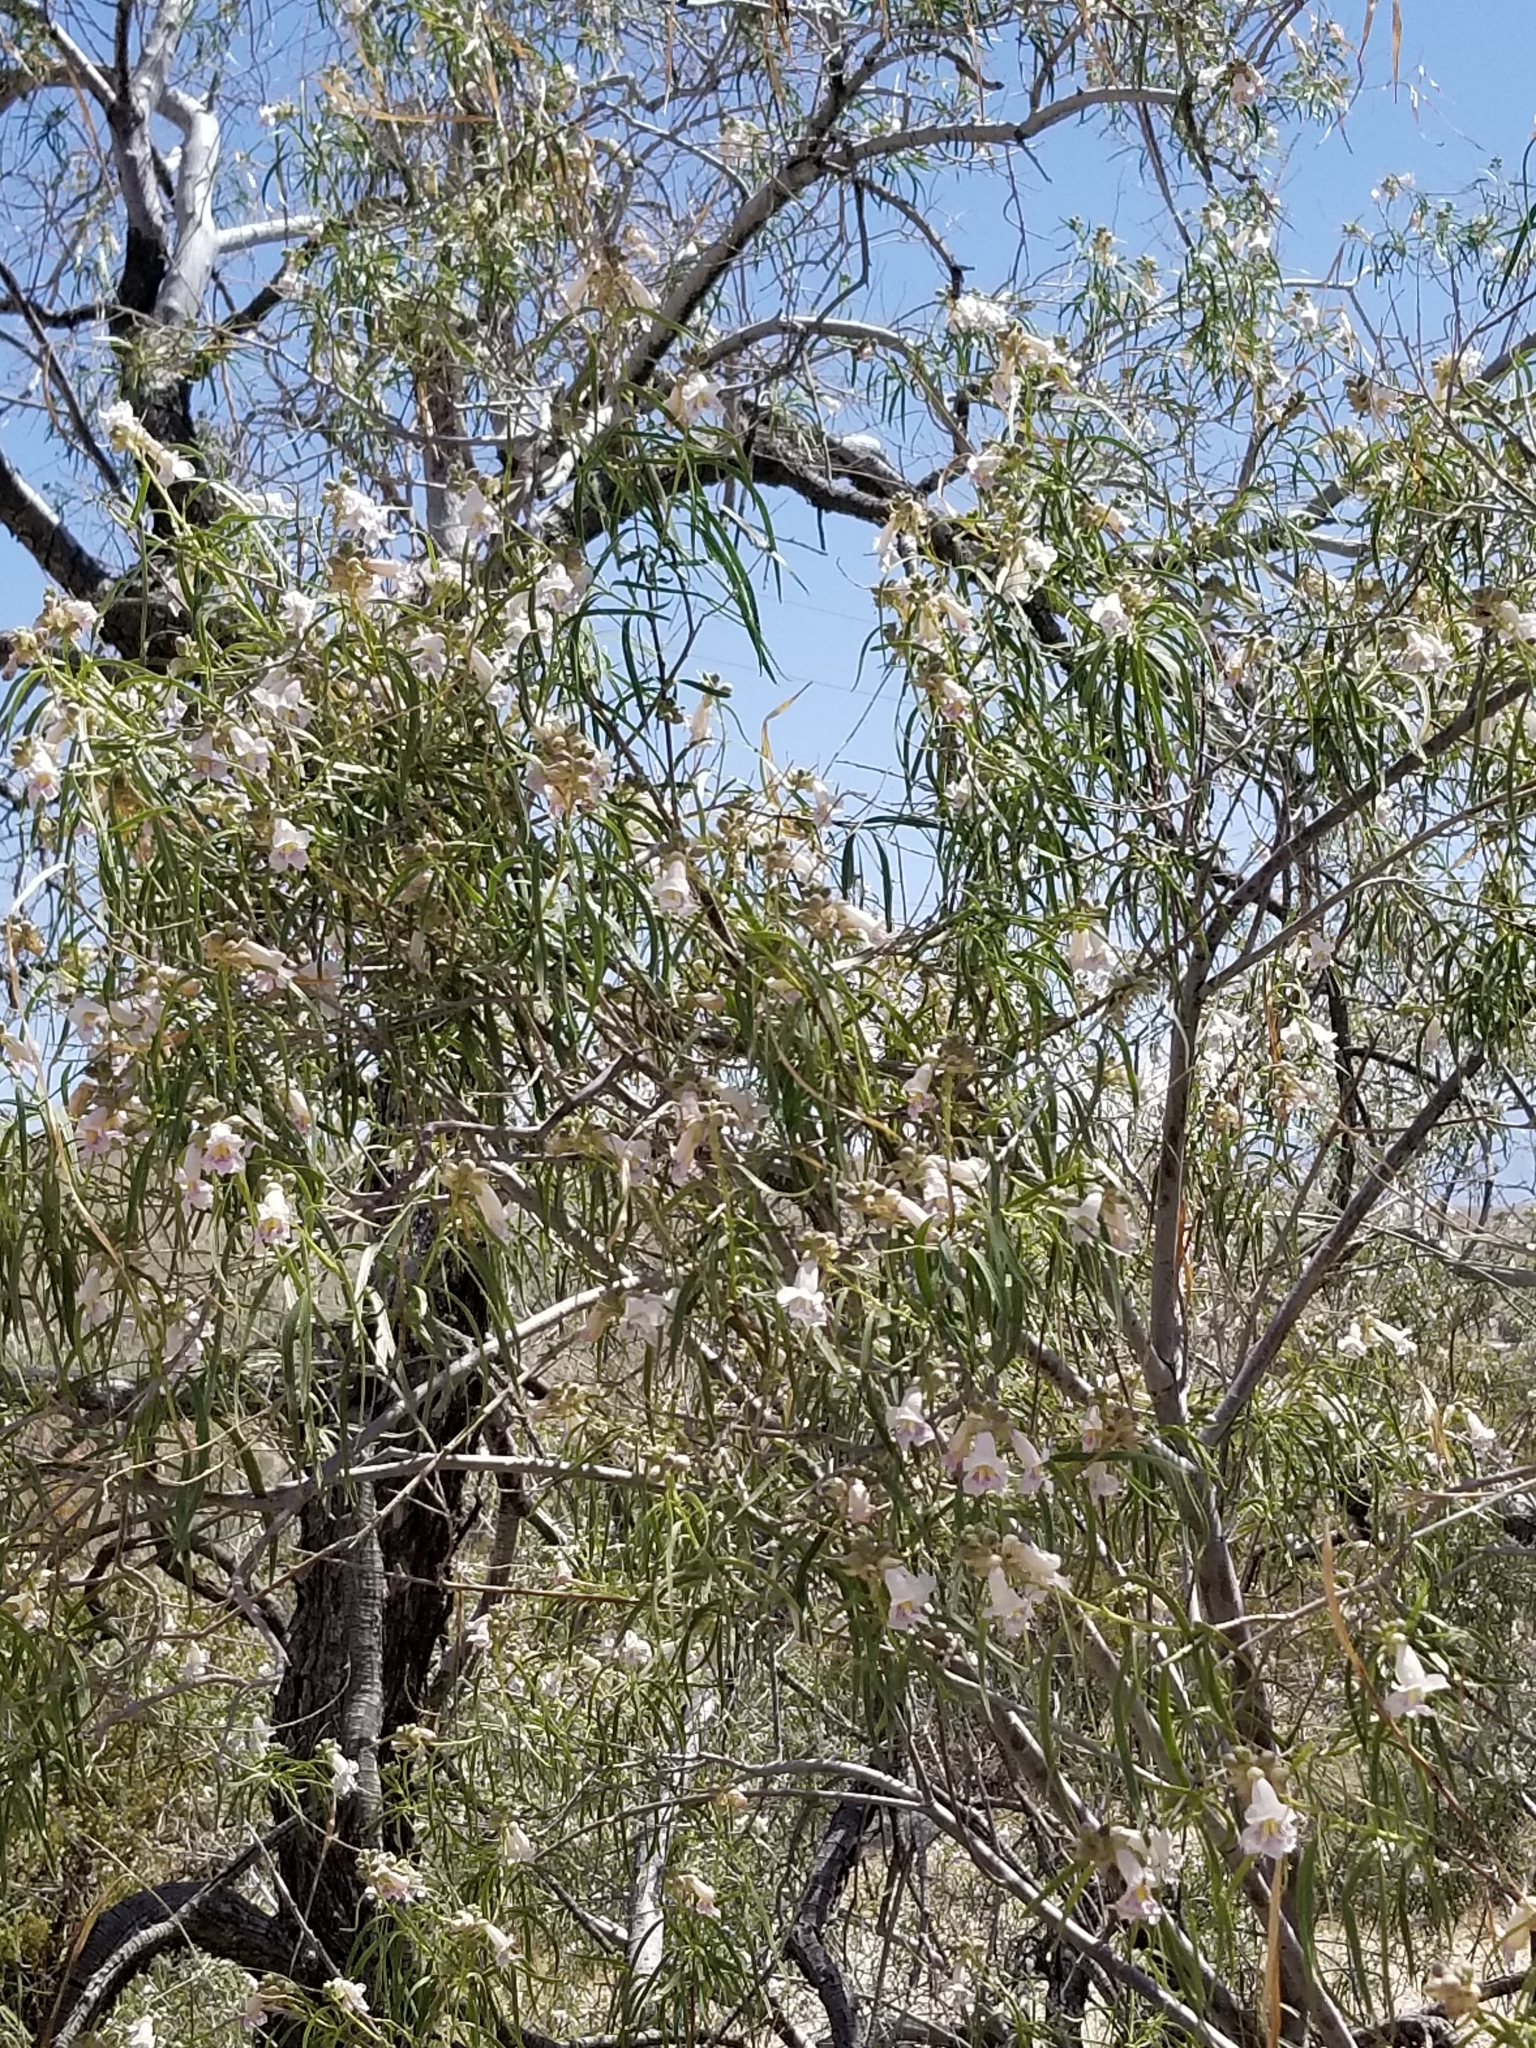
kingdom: Plantae
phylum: Tracheophyta
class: Magnoliopsida
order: Lamiales
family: Bignoniaceae
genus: Chilopsis
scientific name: Chilopsis linearis
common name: Desert-willow
